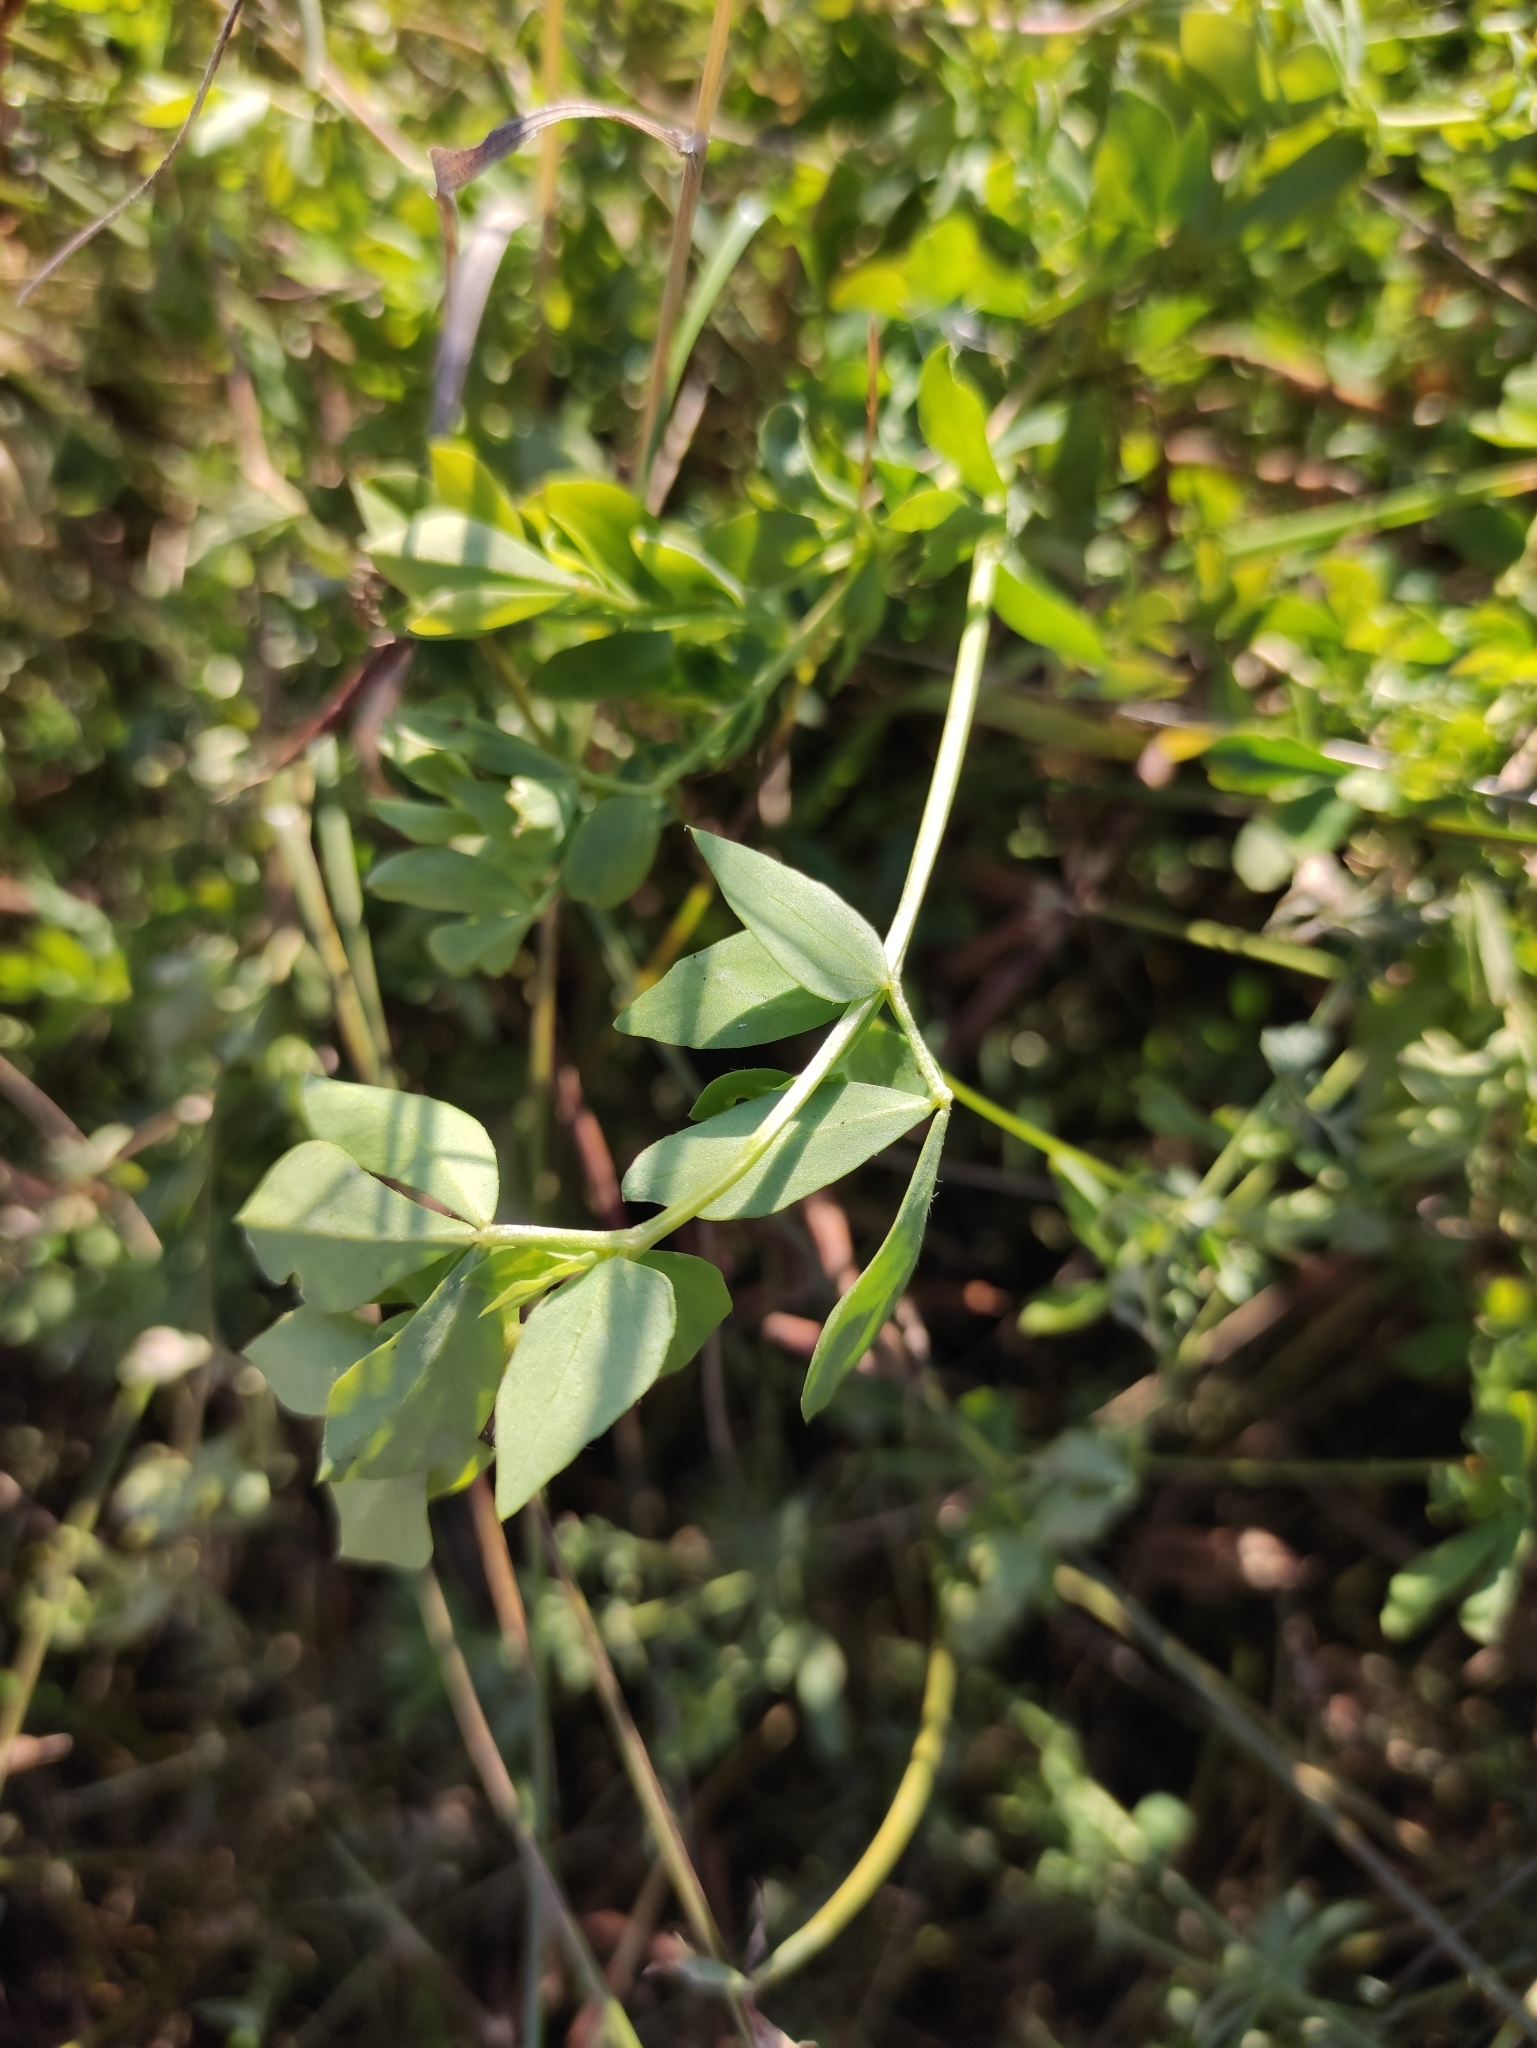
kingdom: Plantae
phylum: Tracheophyta
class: Magnoliopsida
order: Fabales
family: Fabaceae
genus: Lotus
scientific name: Lotus corniculatus
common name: Common bird's-foot-trefoil
